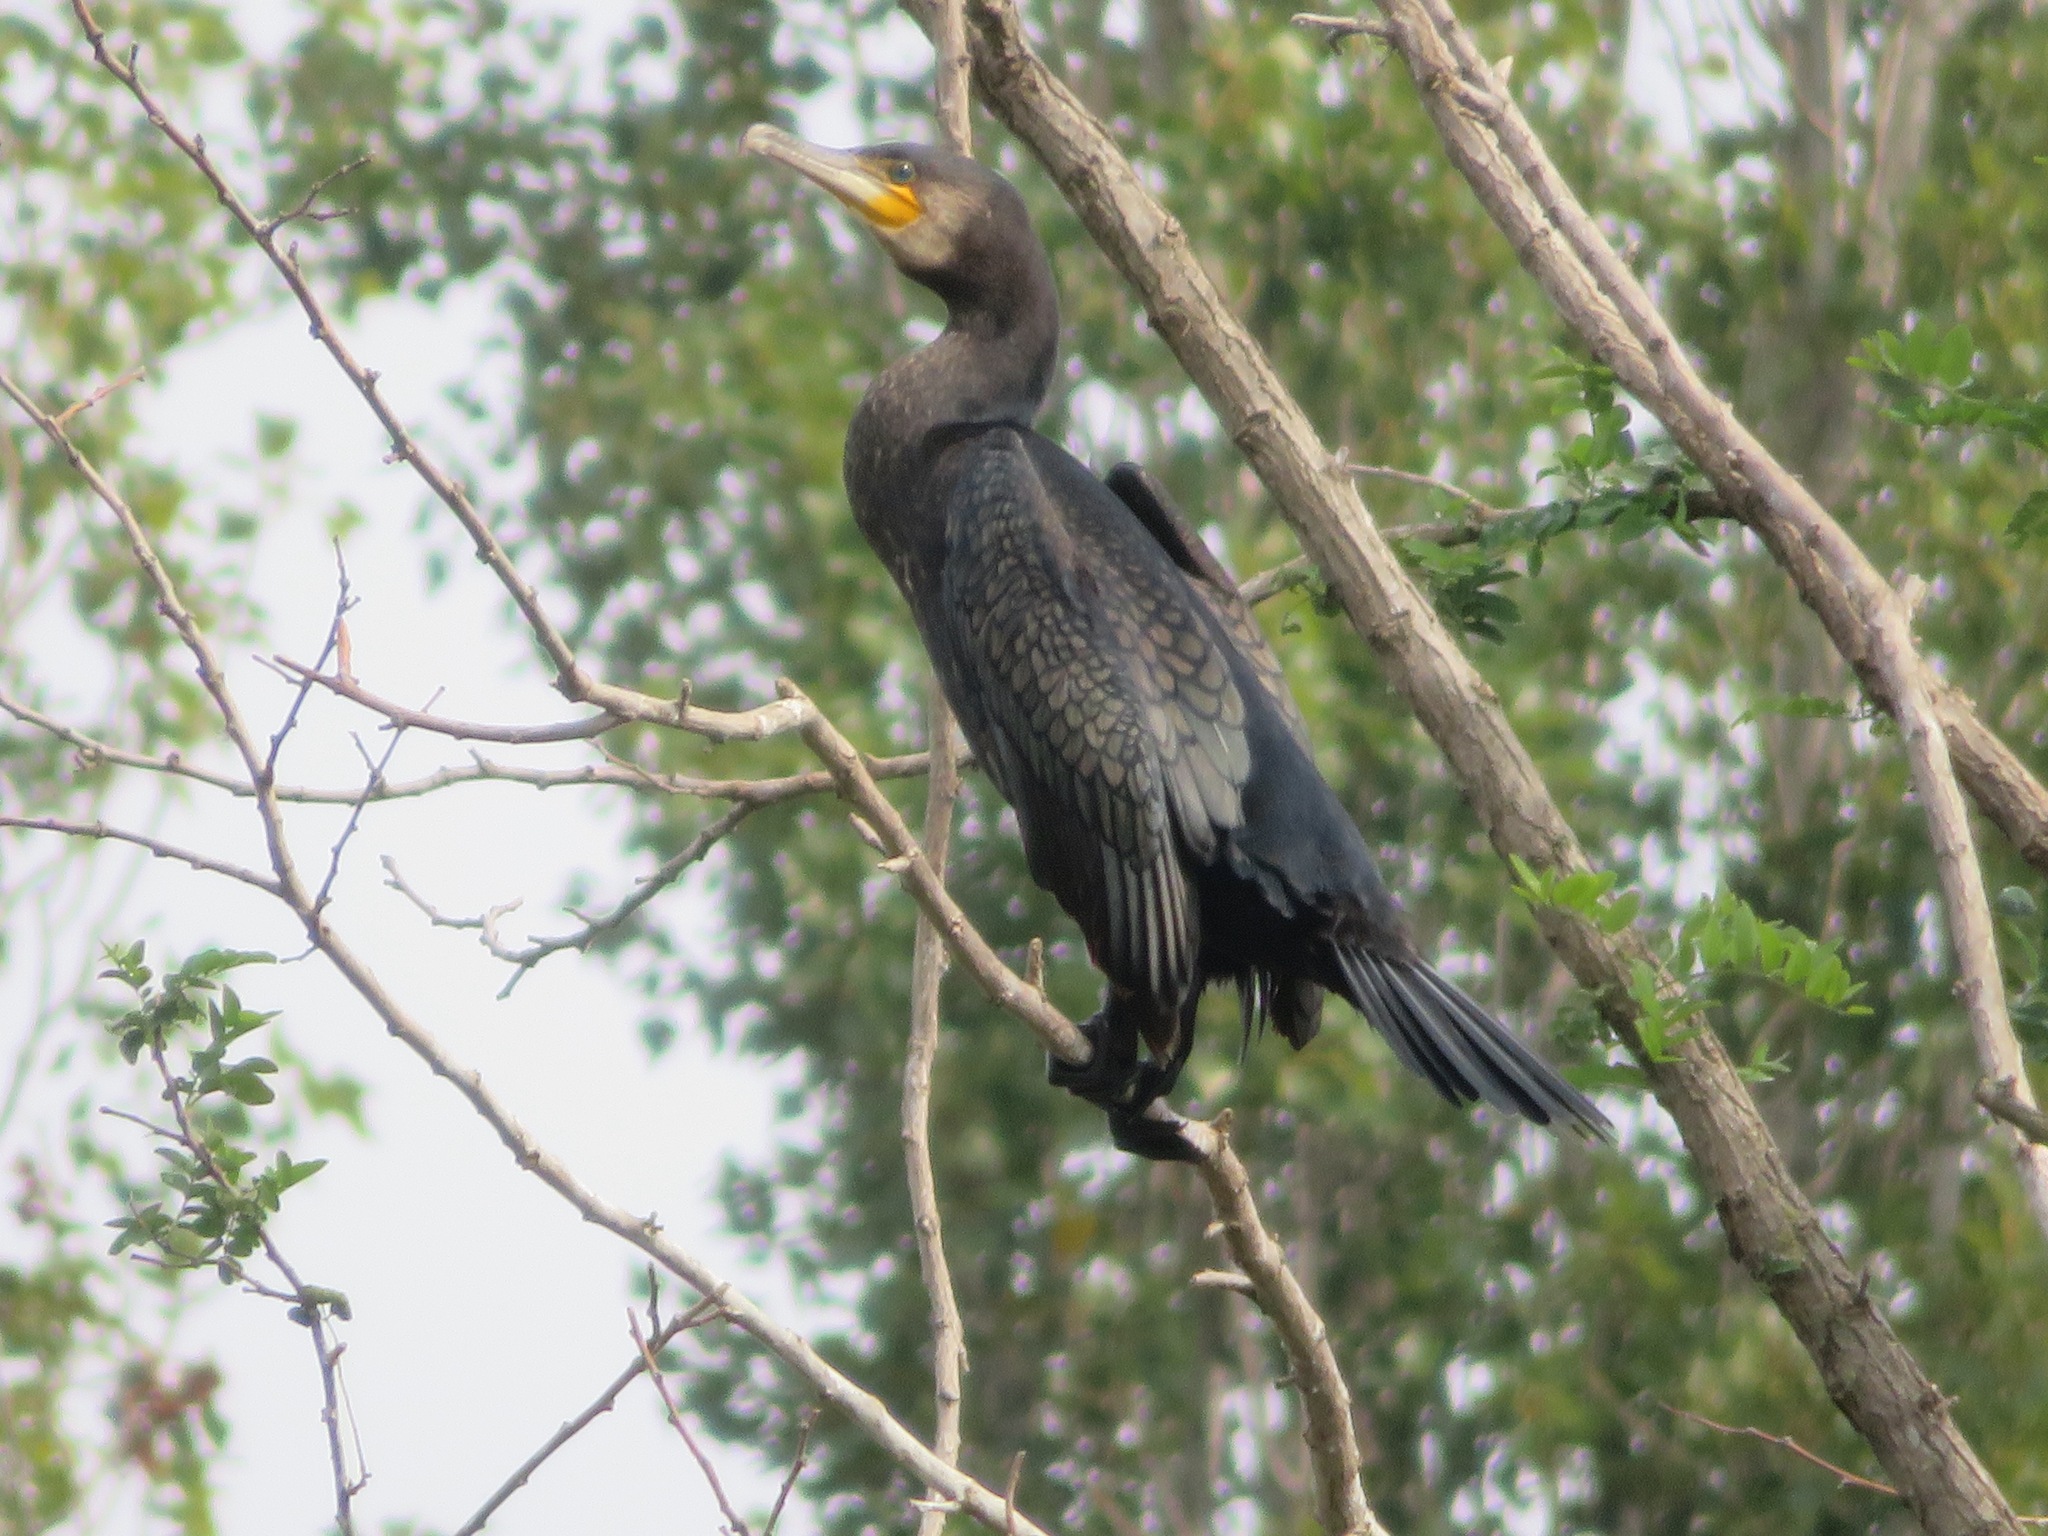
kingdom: Animalia
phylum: Chordata
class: Aves
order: Suliformes
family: Phalacrocoracidae
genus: Phalacrocorax
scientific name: Phalacrocorax carbo
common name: Great cormorant
